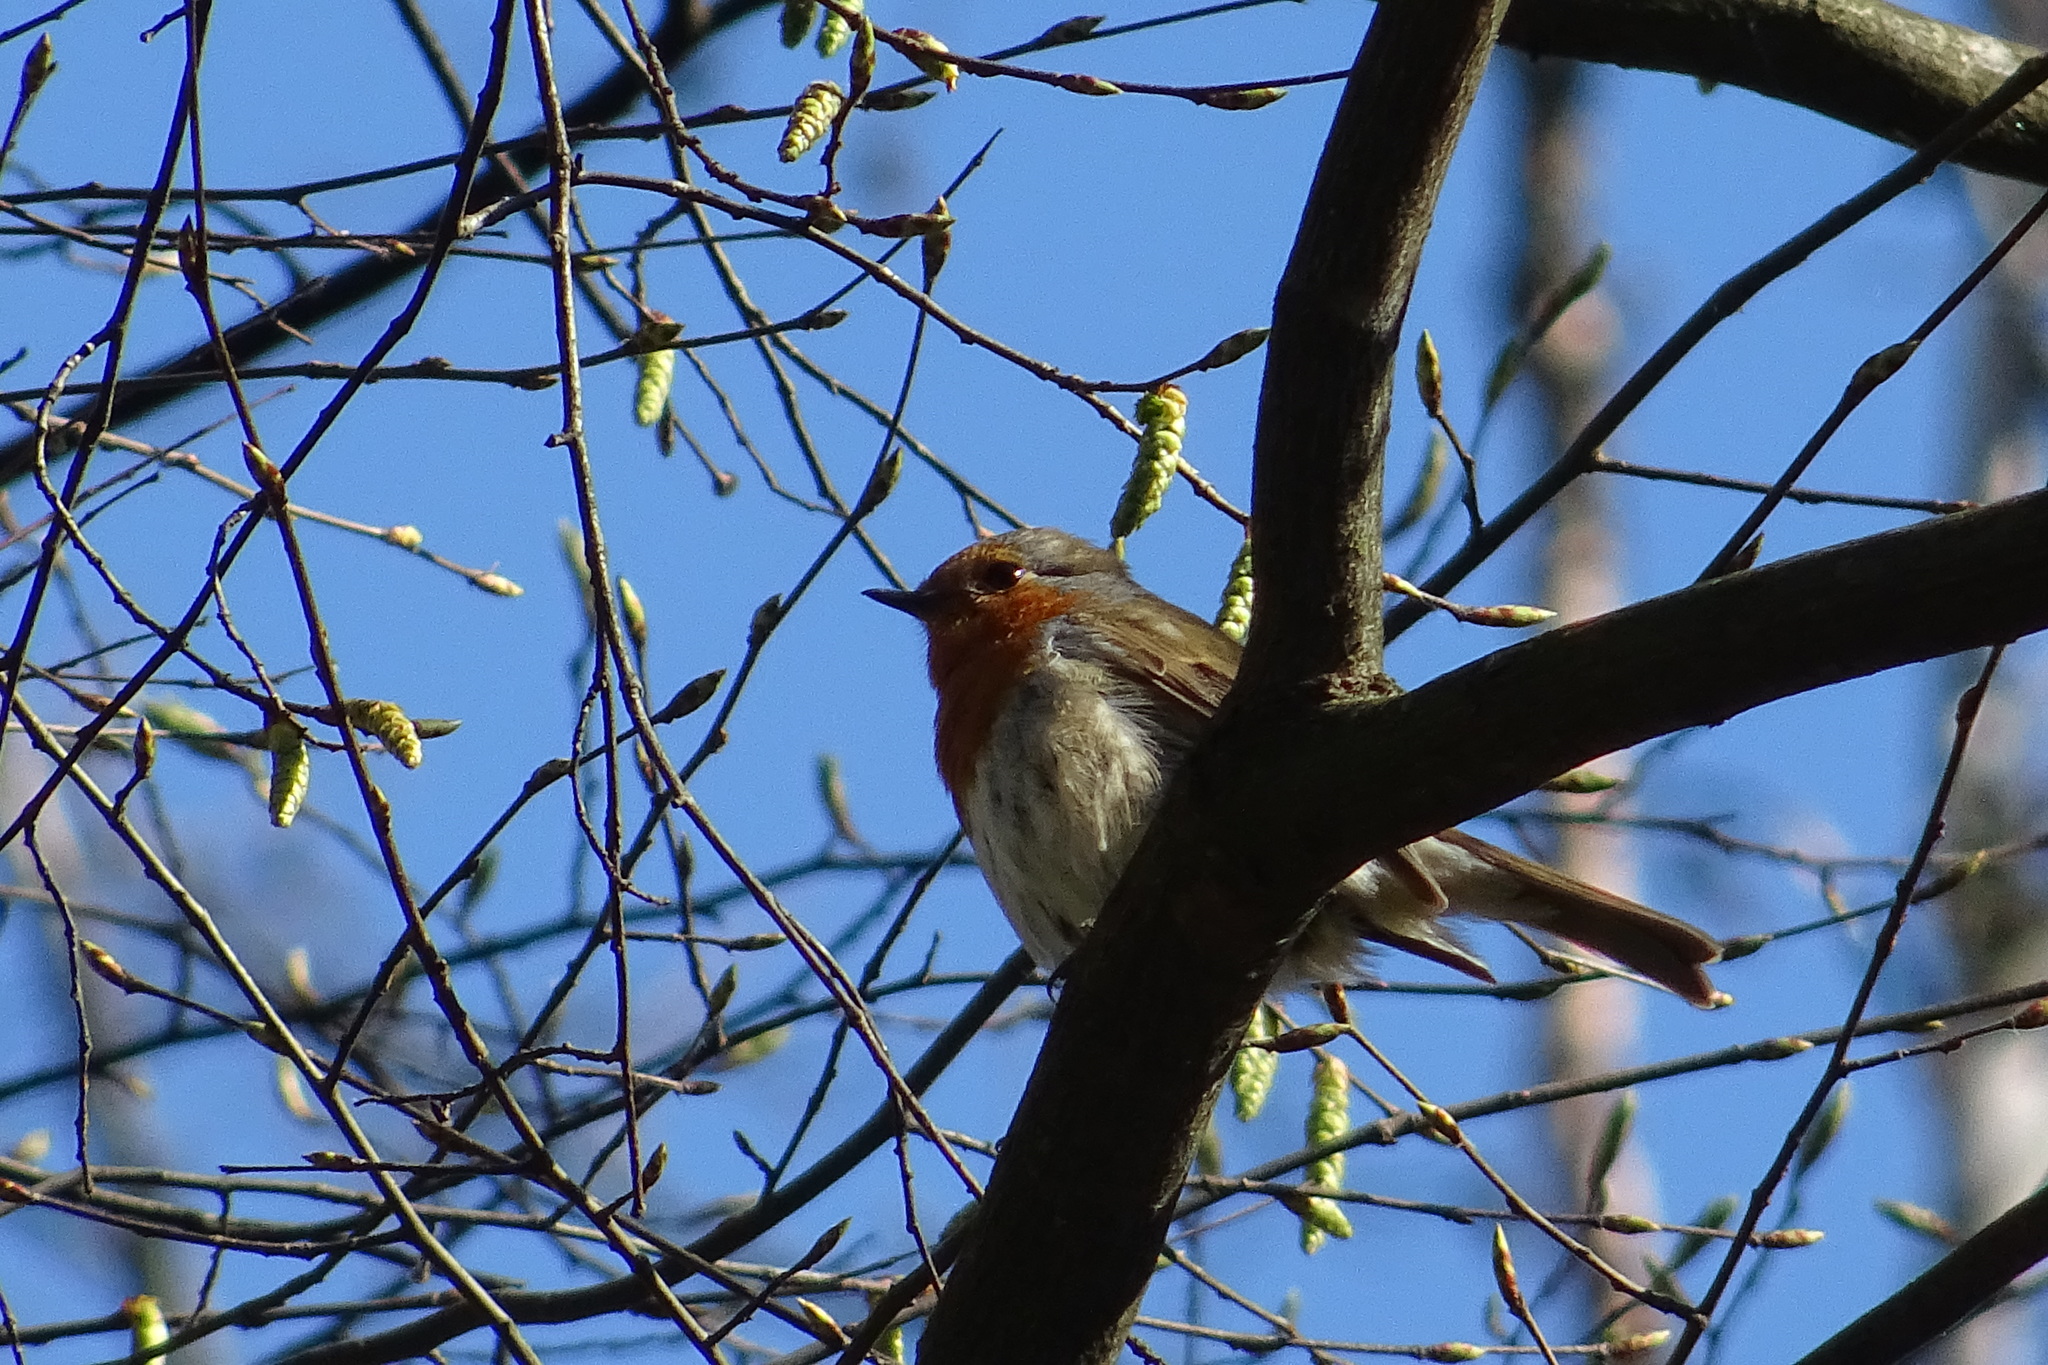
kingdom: Animalia
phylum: Chordata
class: Aves
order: Passeriformes
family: Muscicapidae
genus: Erithacus
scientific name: Erithacus rubecula
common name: European robin
